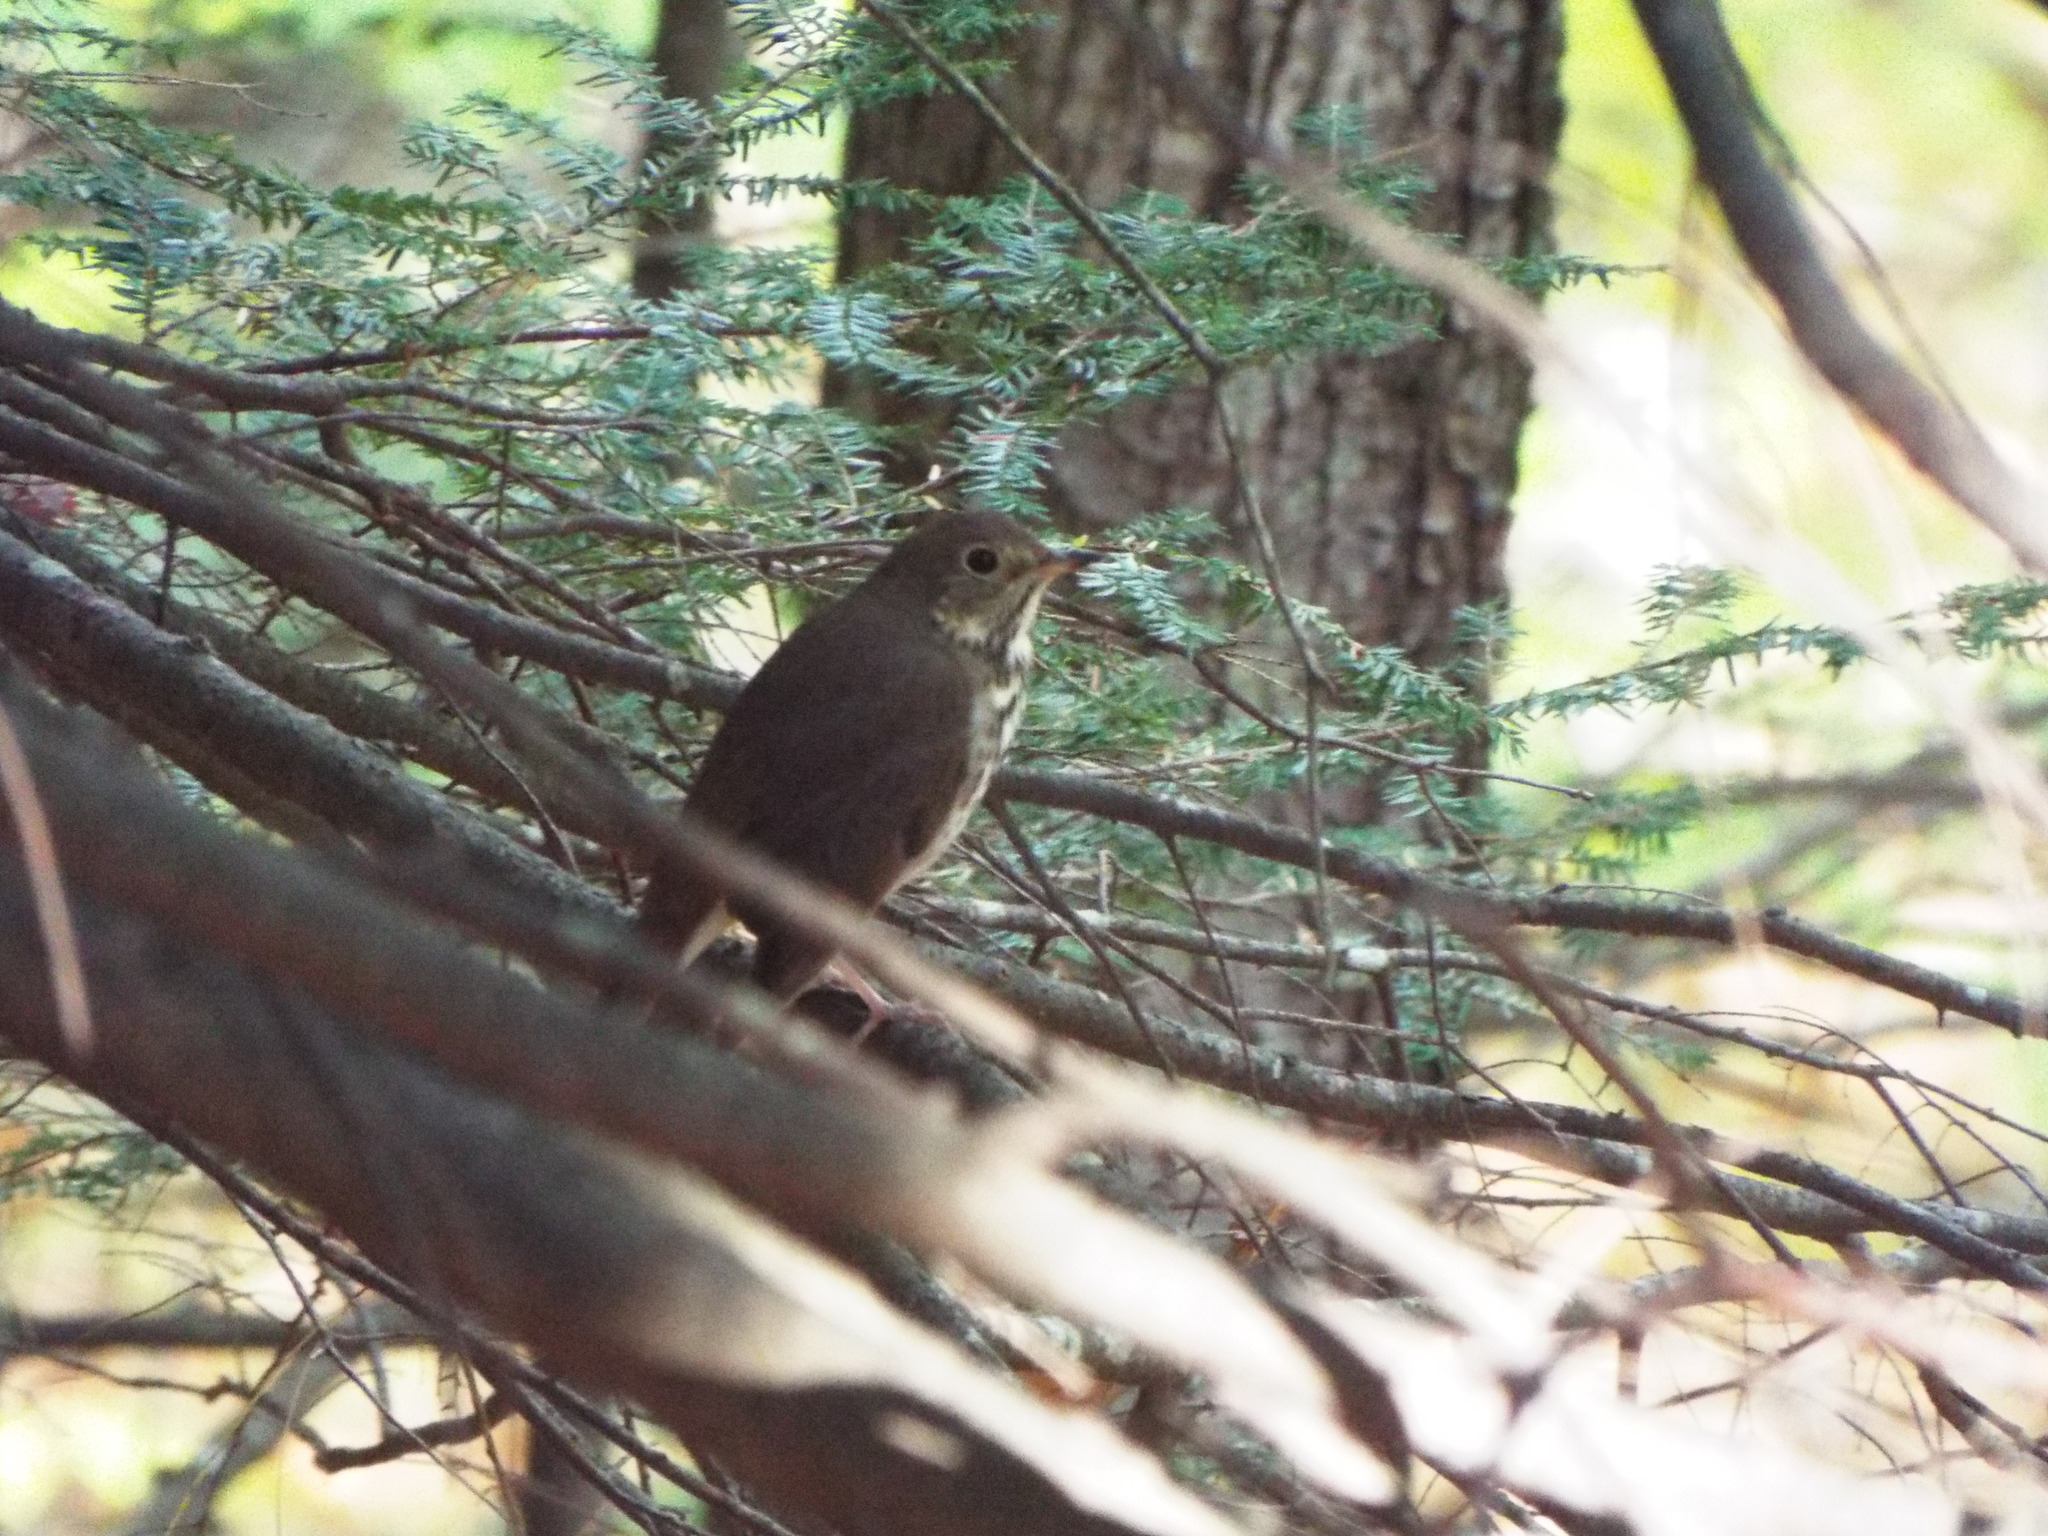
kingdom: Animalia
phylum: Chordata
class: Aves
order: Passeriformes
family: Turdidae
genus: Catharus
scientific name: Catharus ustulatus
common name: Swainson's thrush
